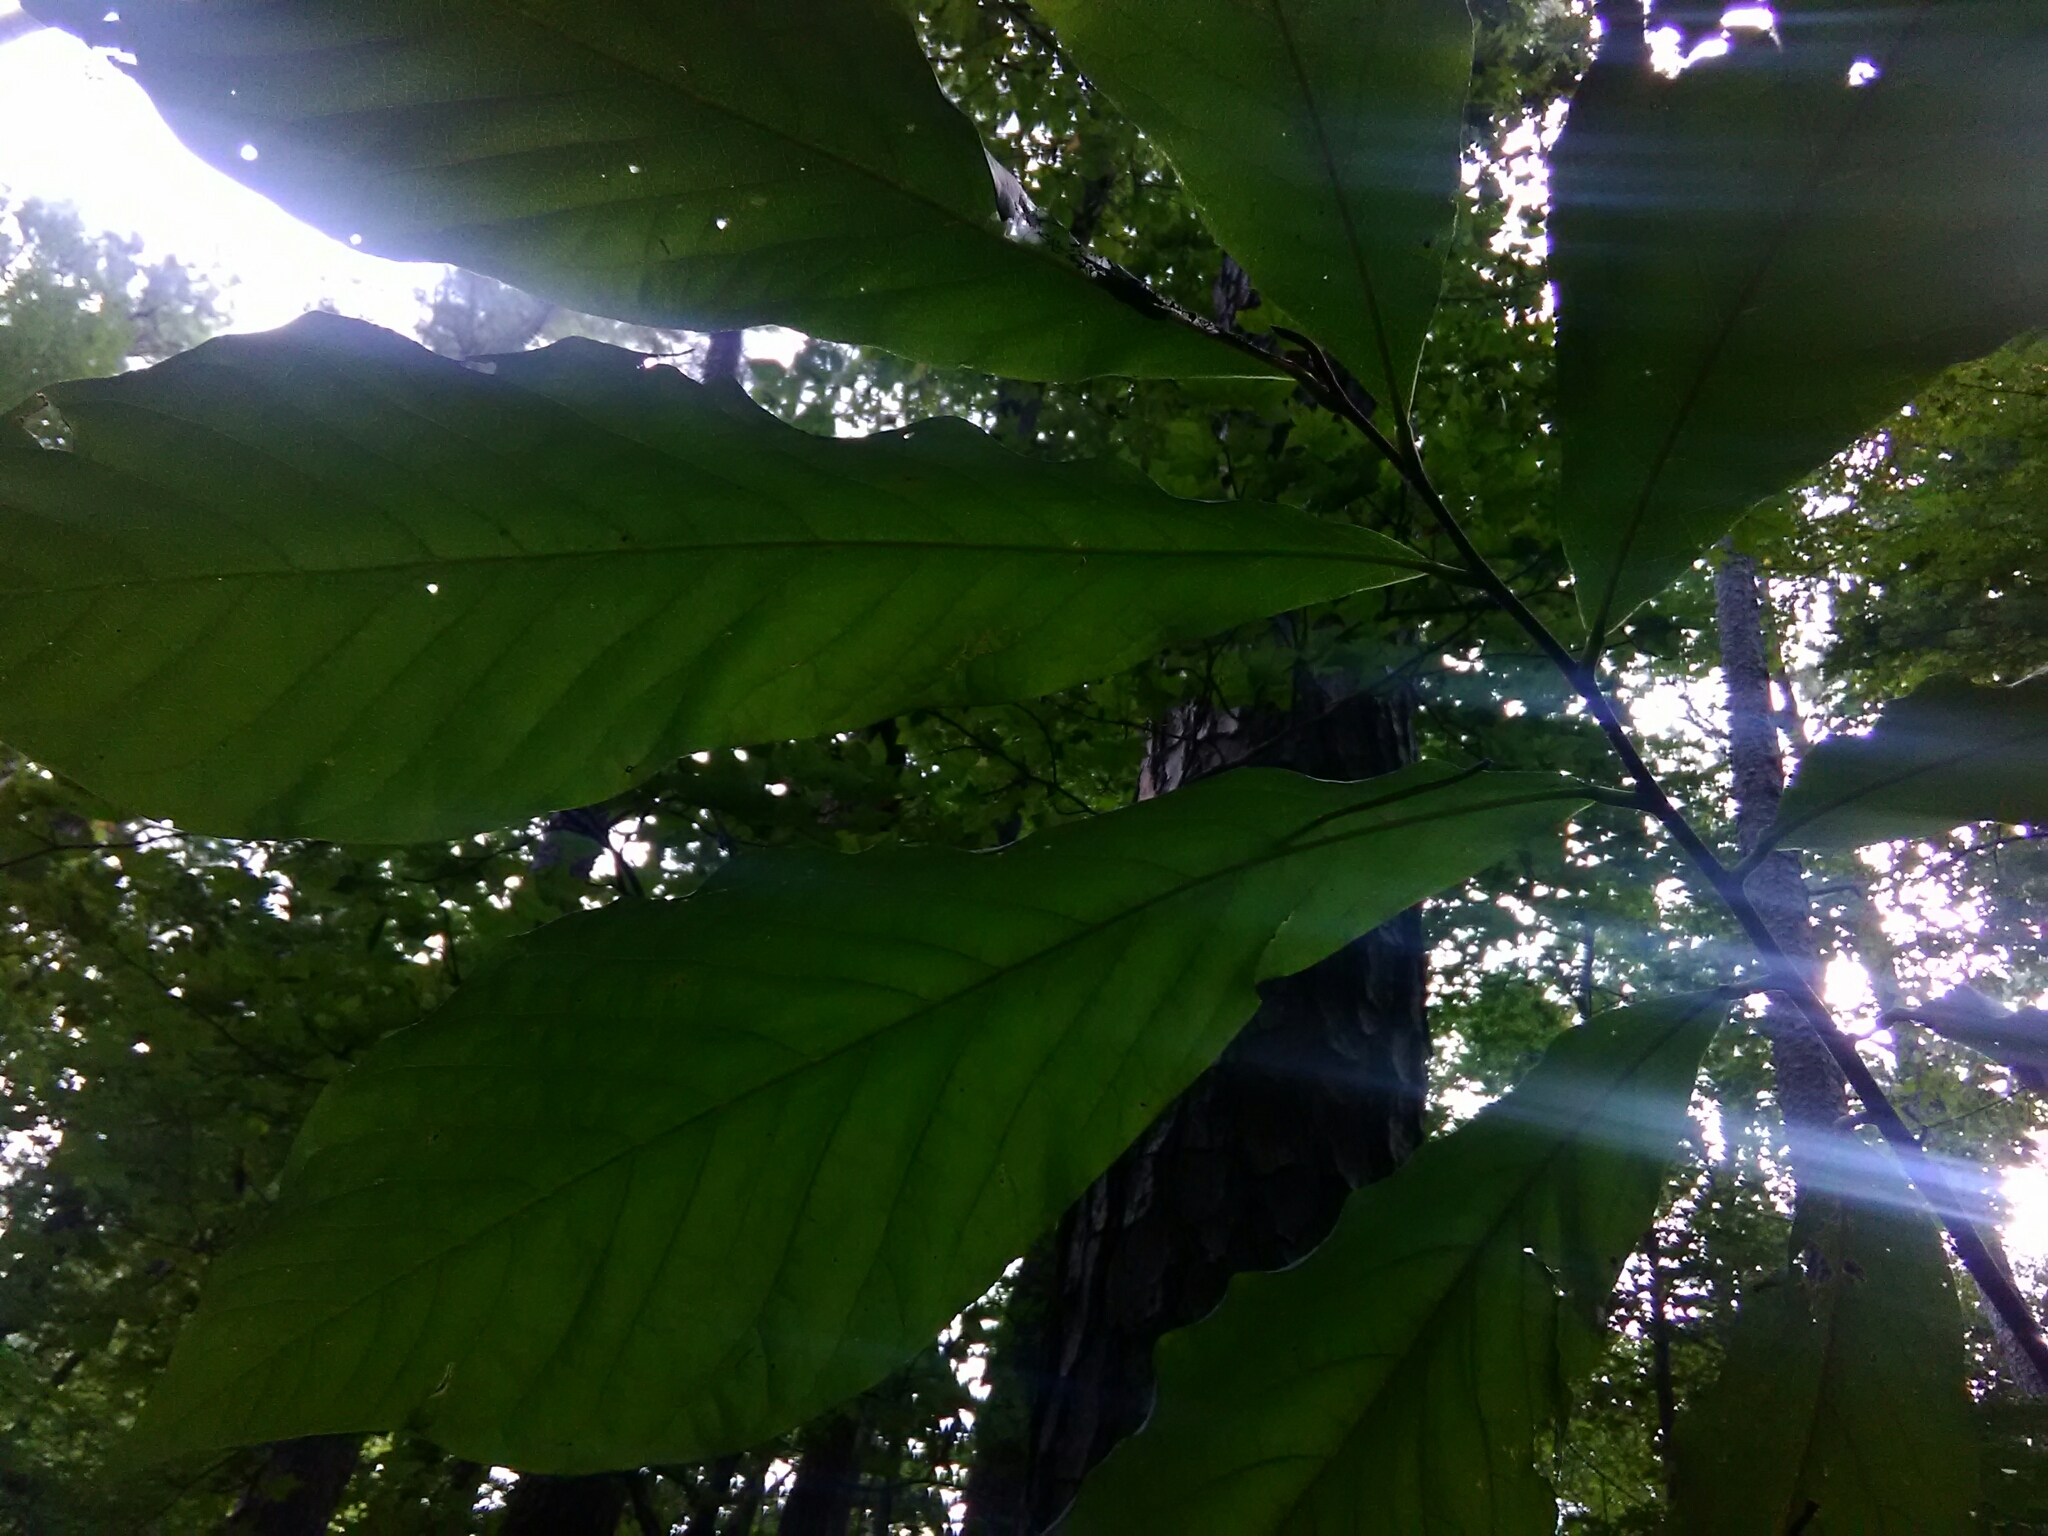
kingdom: Plantae
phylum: Tracheophyta
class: Magnoliopsida
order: Magnoliales
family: Annonaceae
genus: Asimina
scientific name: Asimina triloba
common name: Dog-banana
